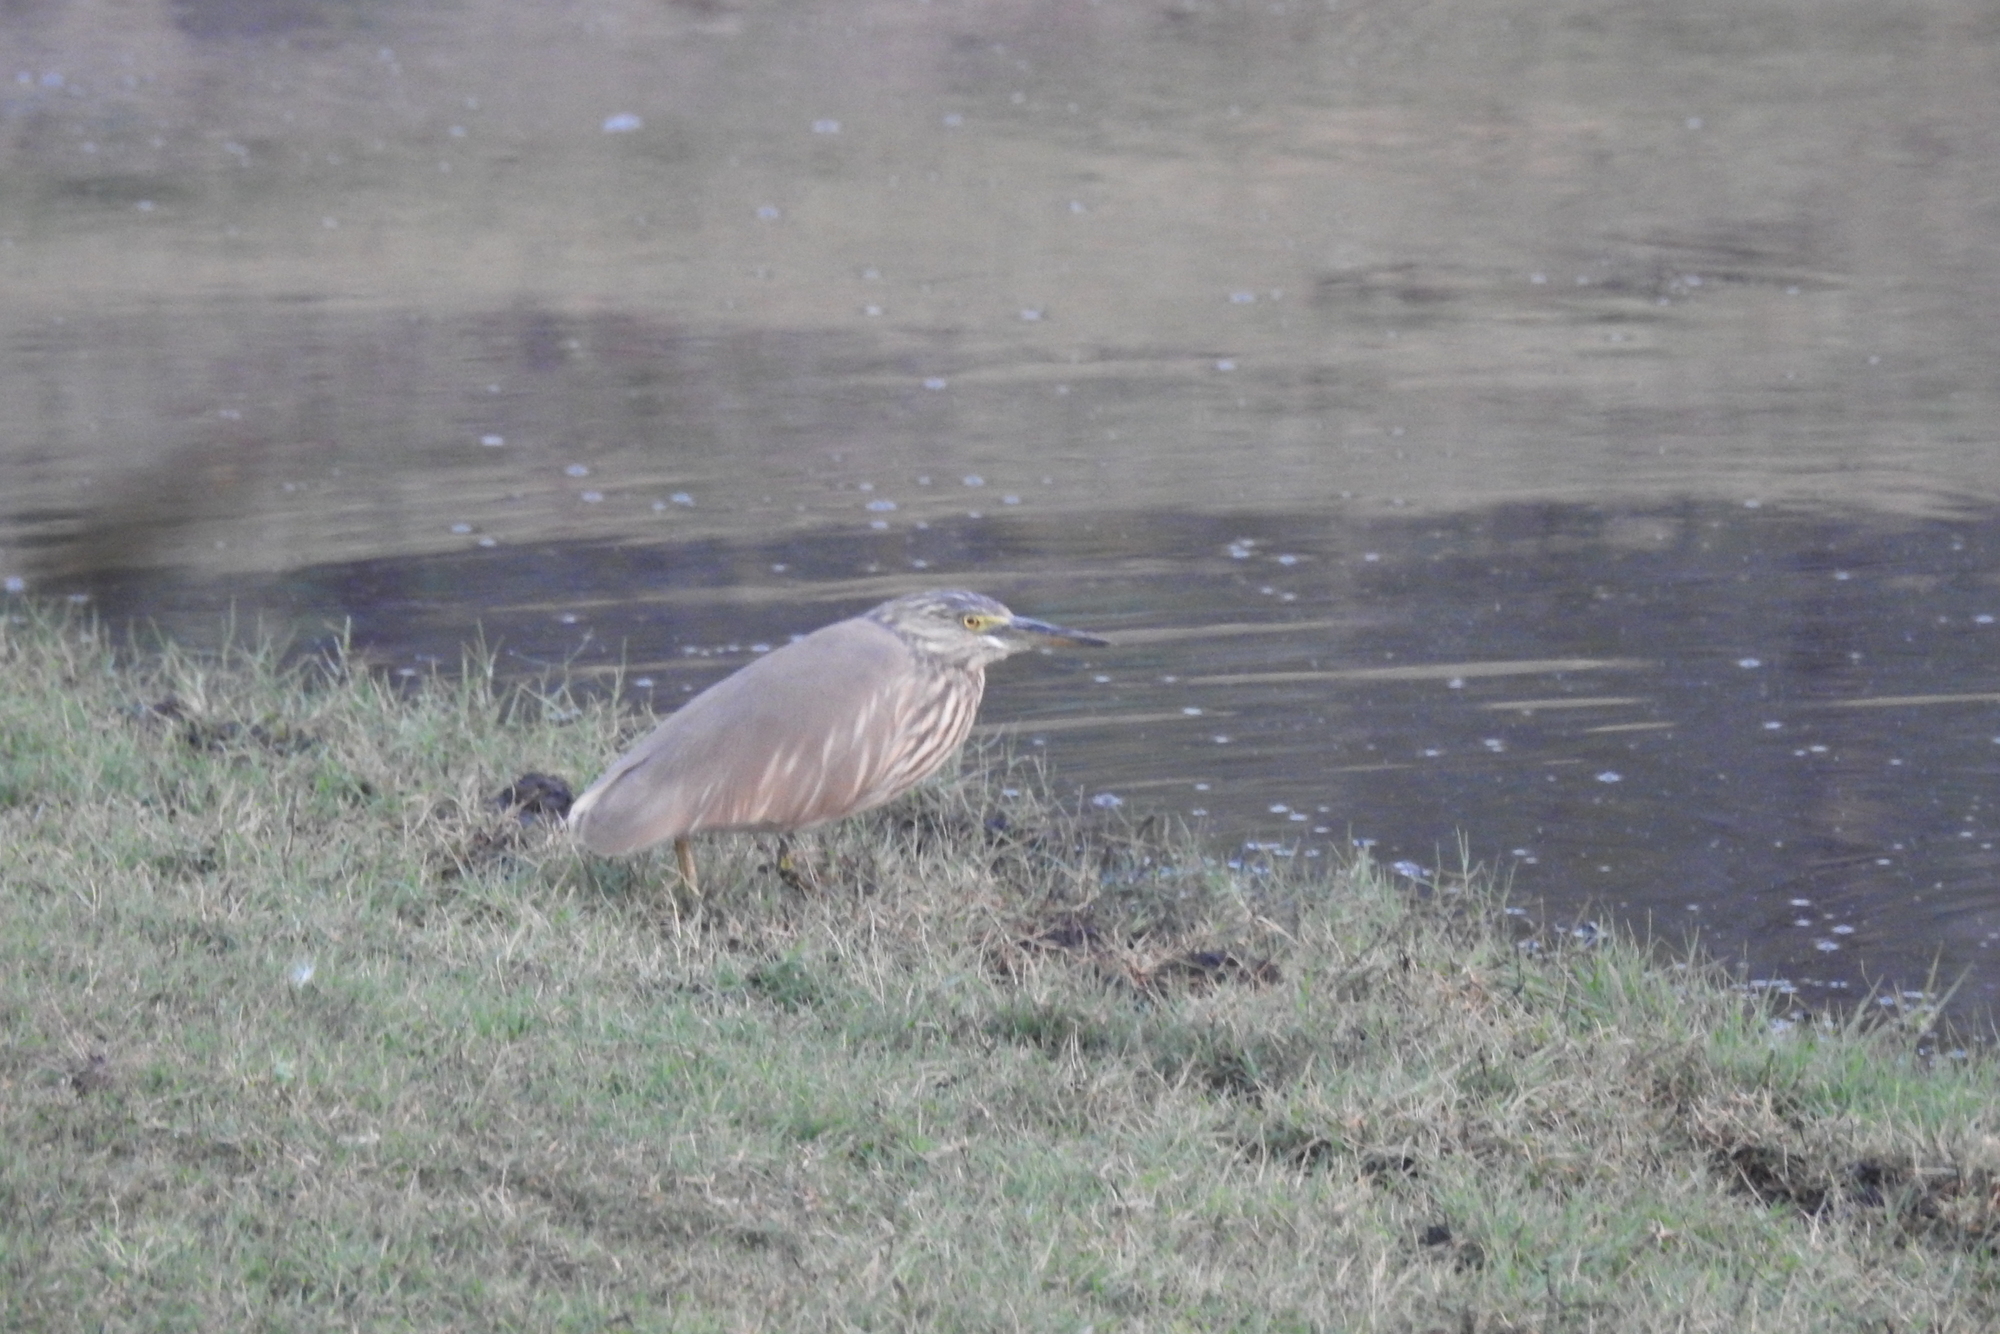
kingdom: Animalia
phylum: Chordata
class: Aves
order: Pelecaniformes
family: Ardeidae
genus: Ardeola
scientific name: Ardeola grayii
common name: Indian pond heron
